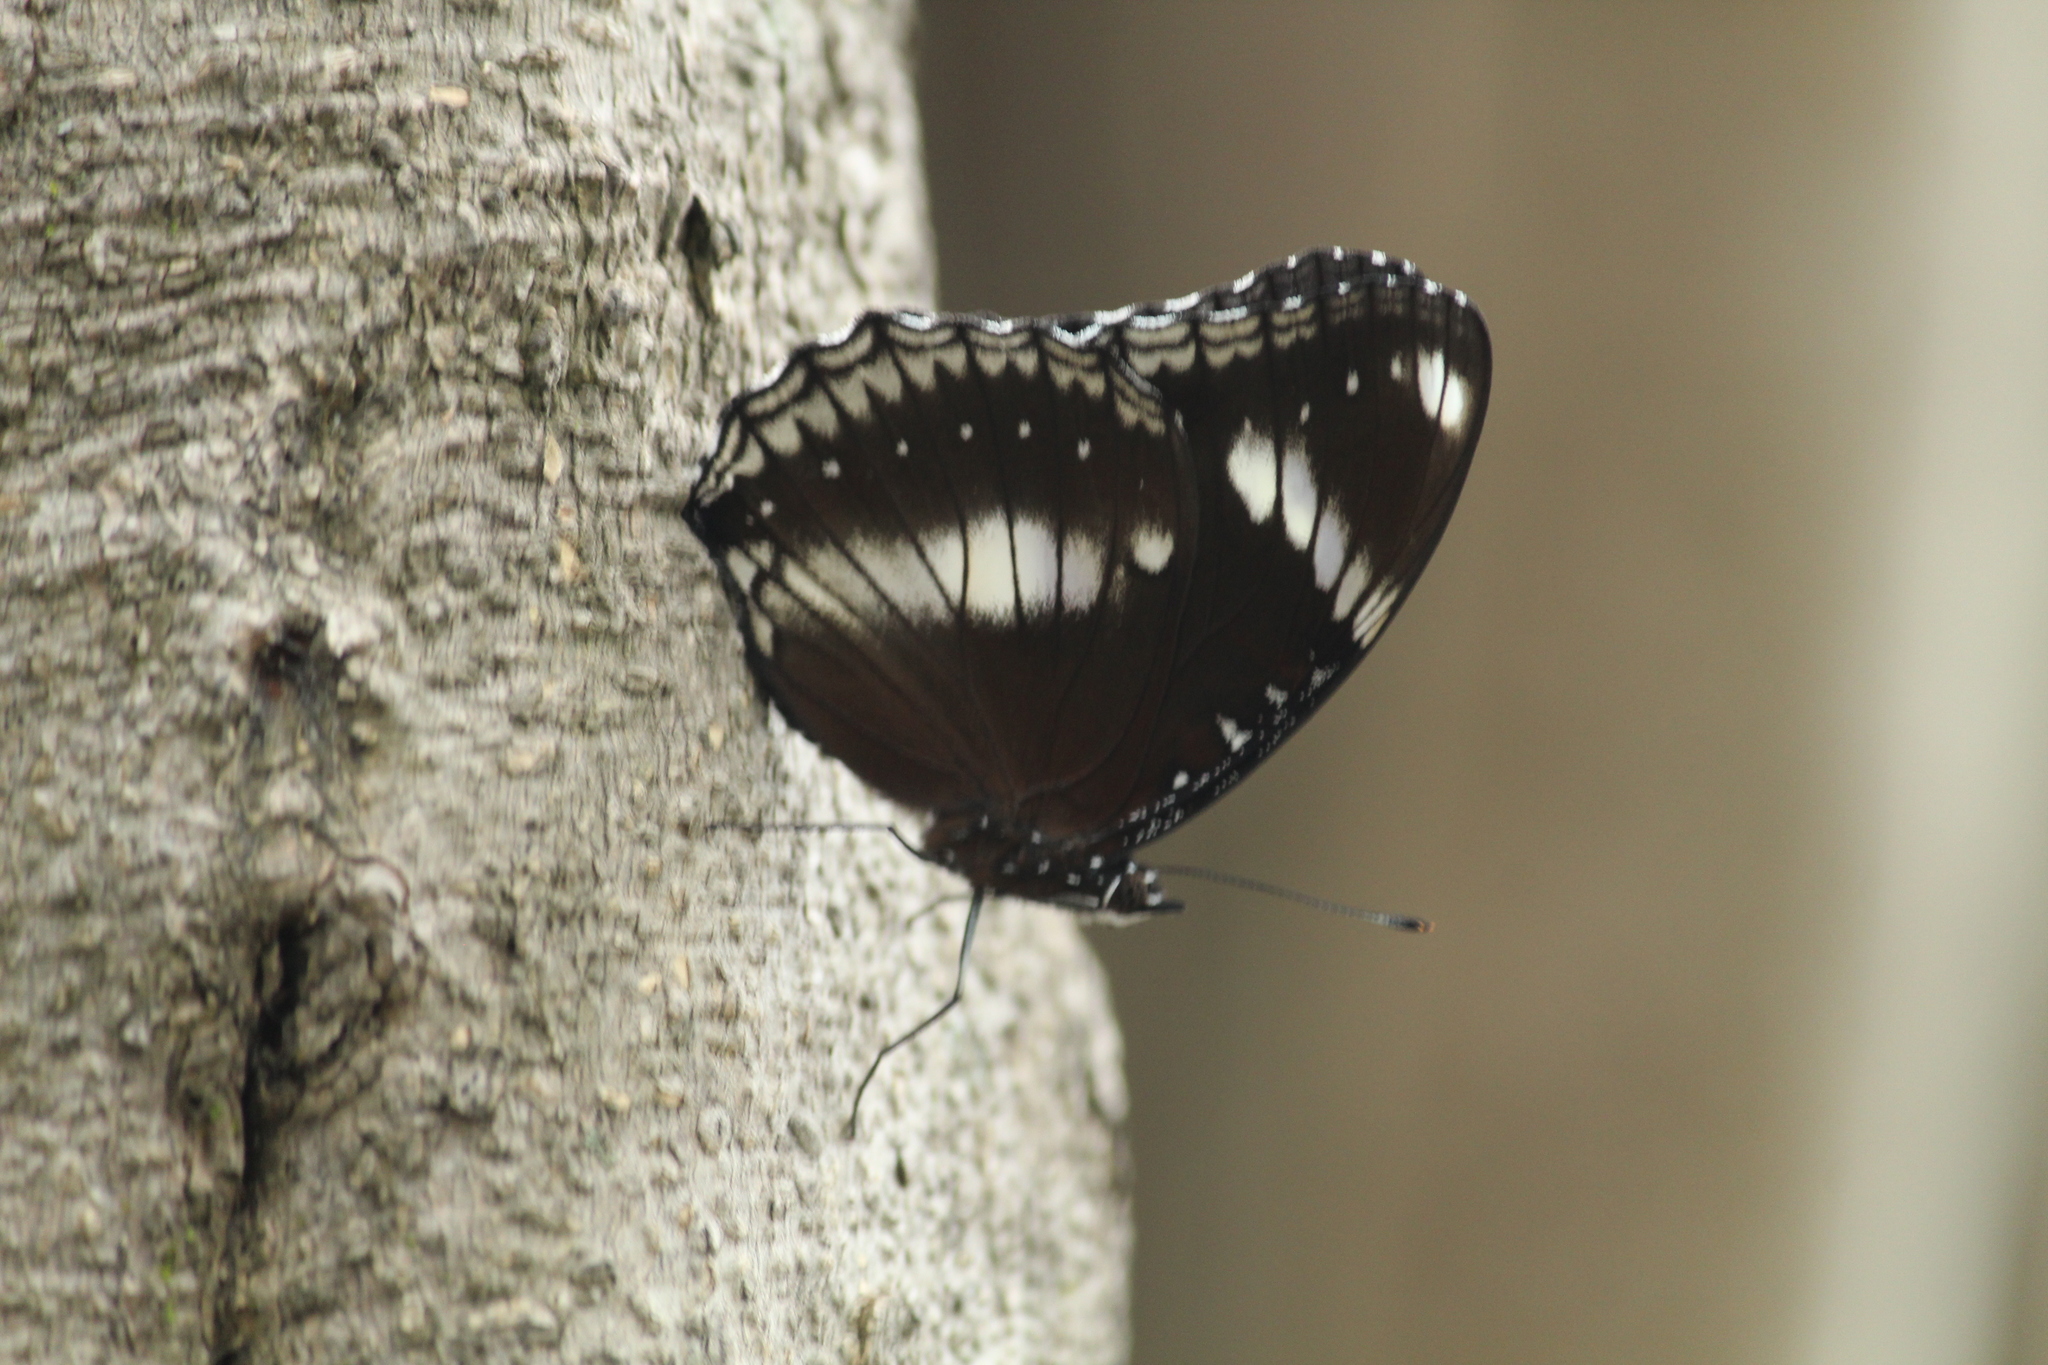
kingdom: Animalia
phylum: Arthropoda
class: Insecta
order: Lepidoptera
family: Nymphalidae
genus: Hypolimnas
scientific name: Hypolimnas bolina
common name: Great eggfly
